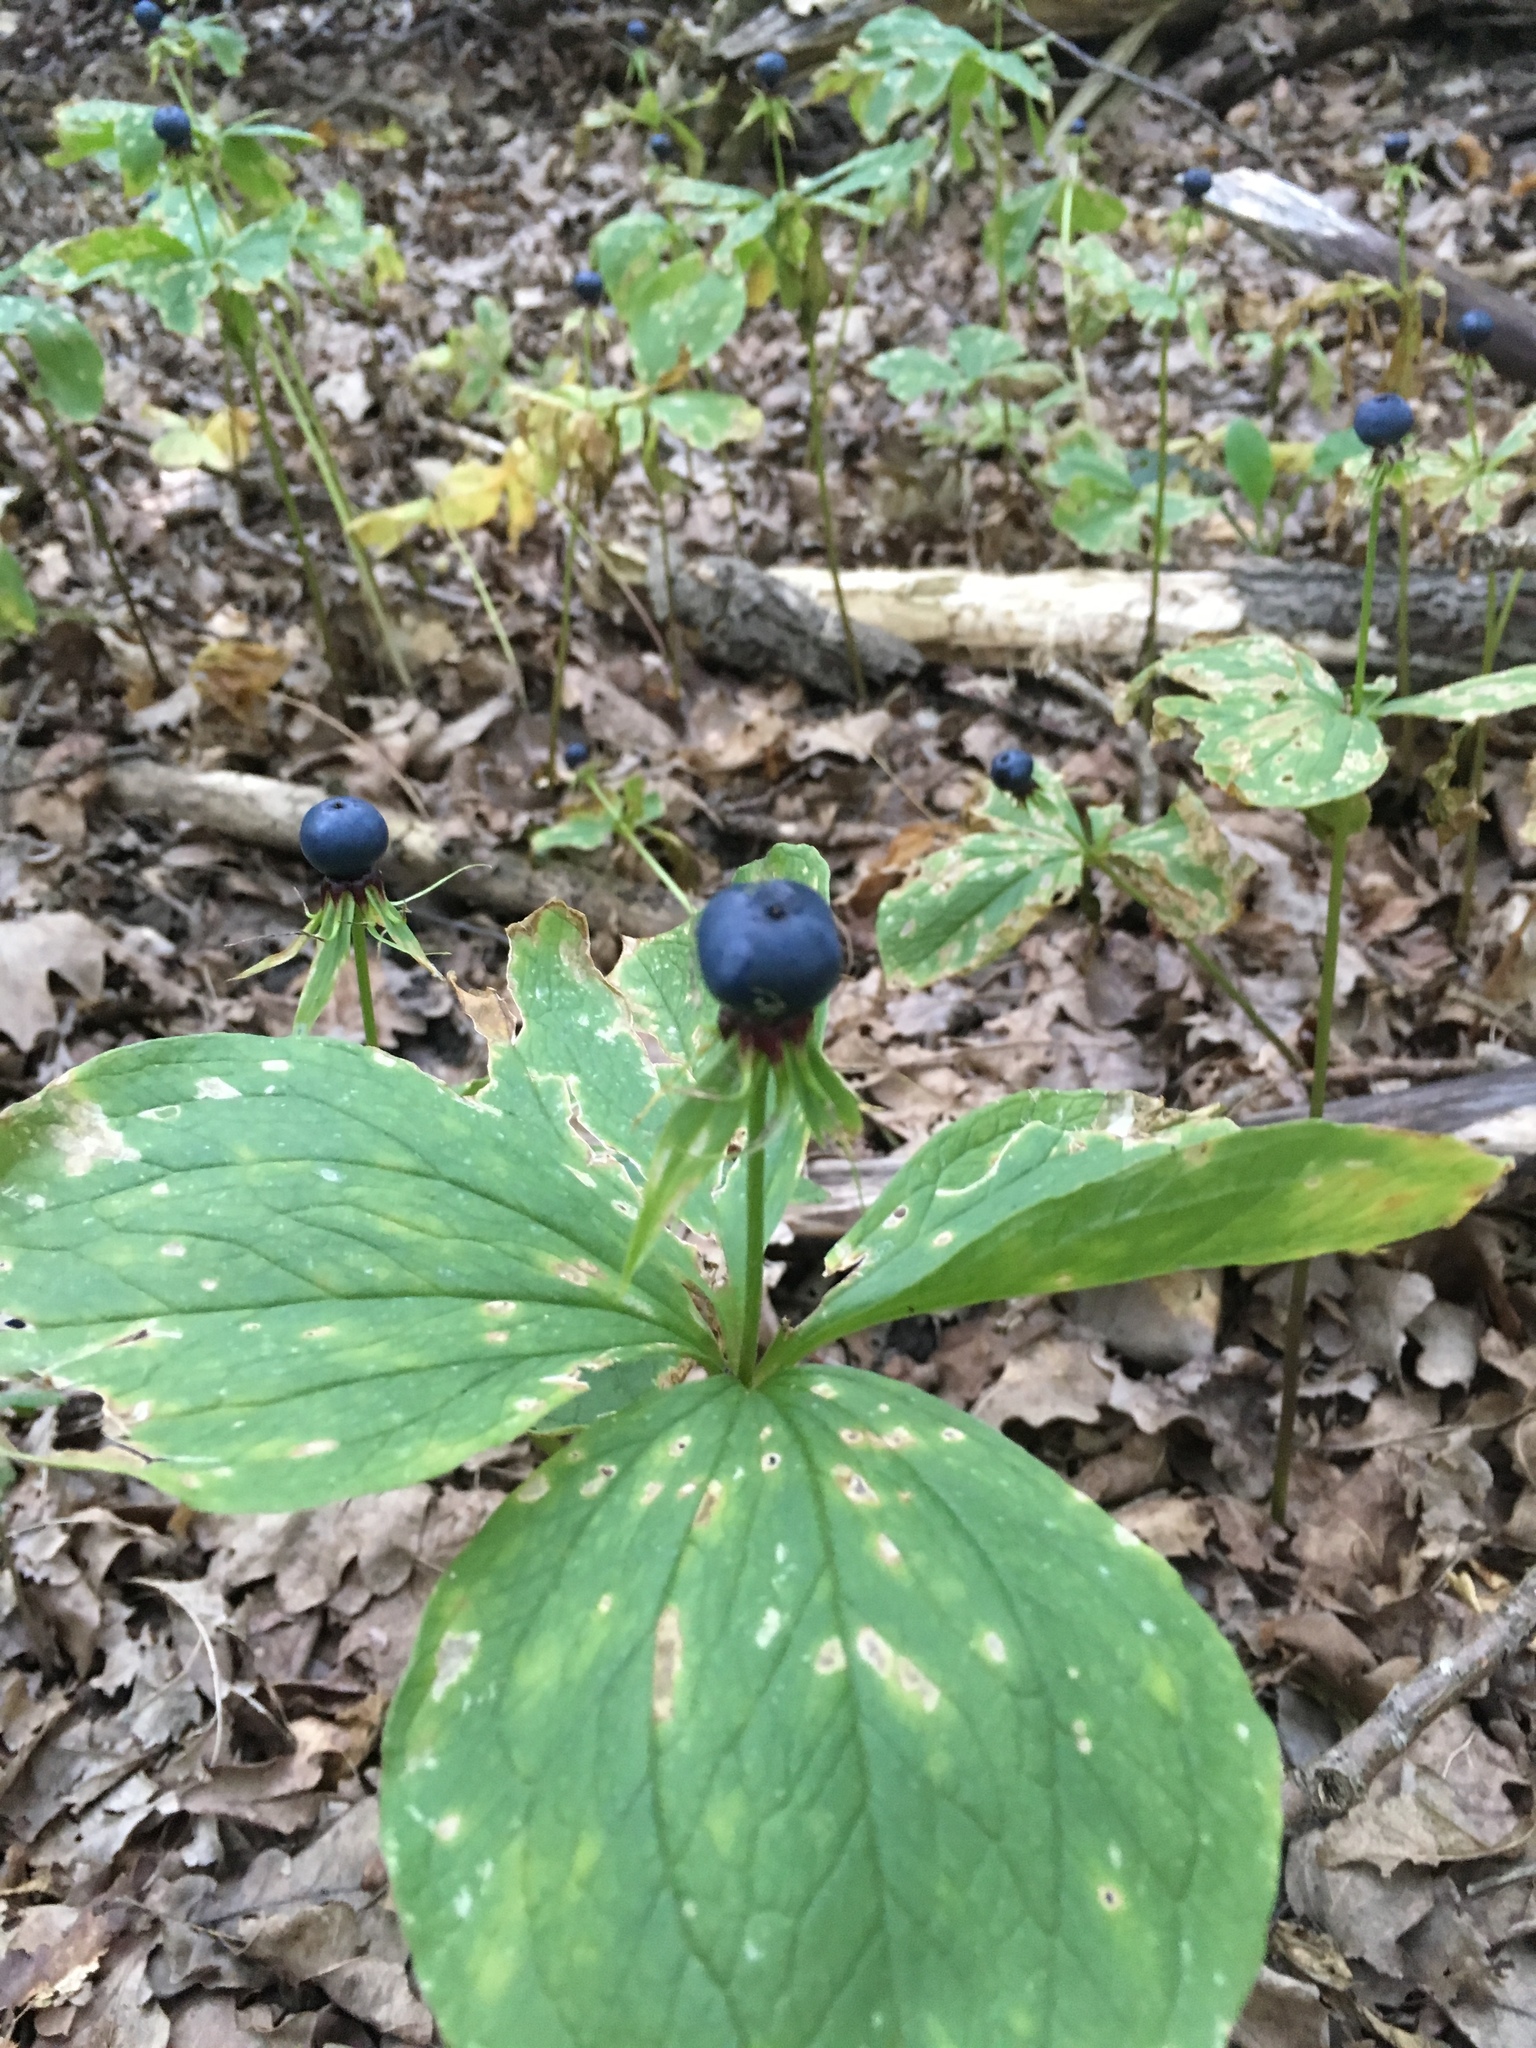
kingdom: Plantae
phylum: Tracheophyta
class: Liliopsida
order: Liliales
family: Melanthiaceae
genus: Paris
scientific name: Paris quadrifolia
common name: Herb-paris
